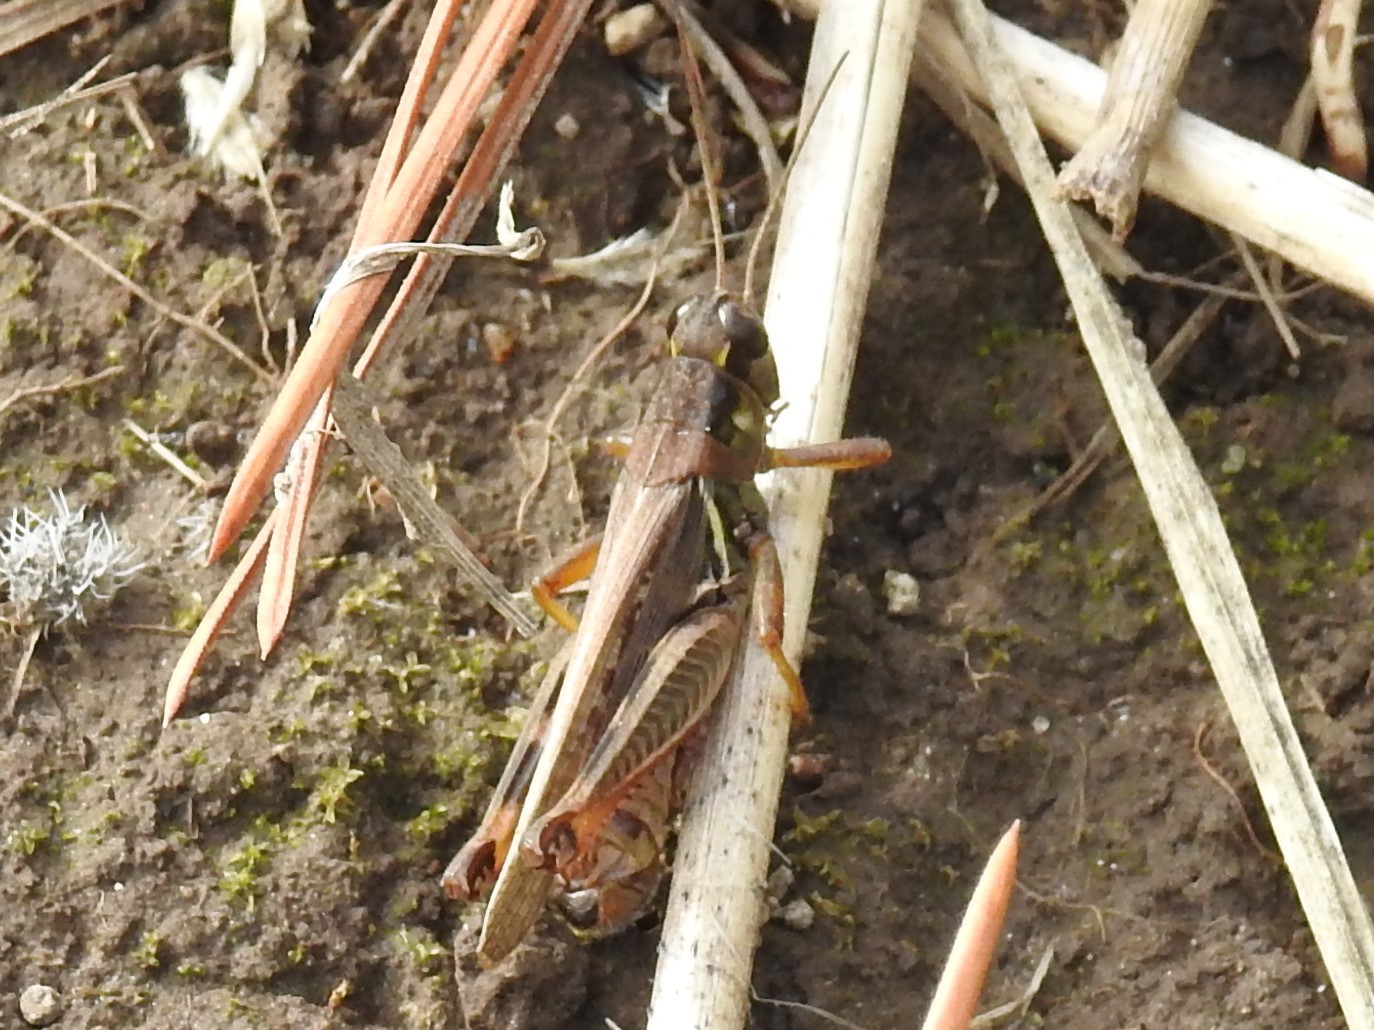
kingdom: Animalia
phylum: Arthropoda
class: Insecta
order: Orthoptera
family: Acrididae
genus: Melanoplus
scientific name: Melanoplus femurrubrum
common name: Red-legged grasshopper
